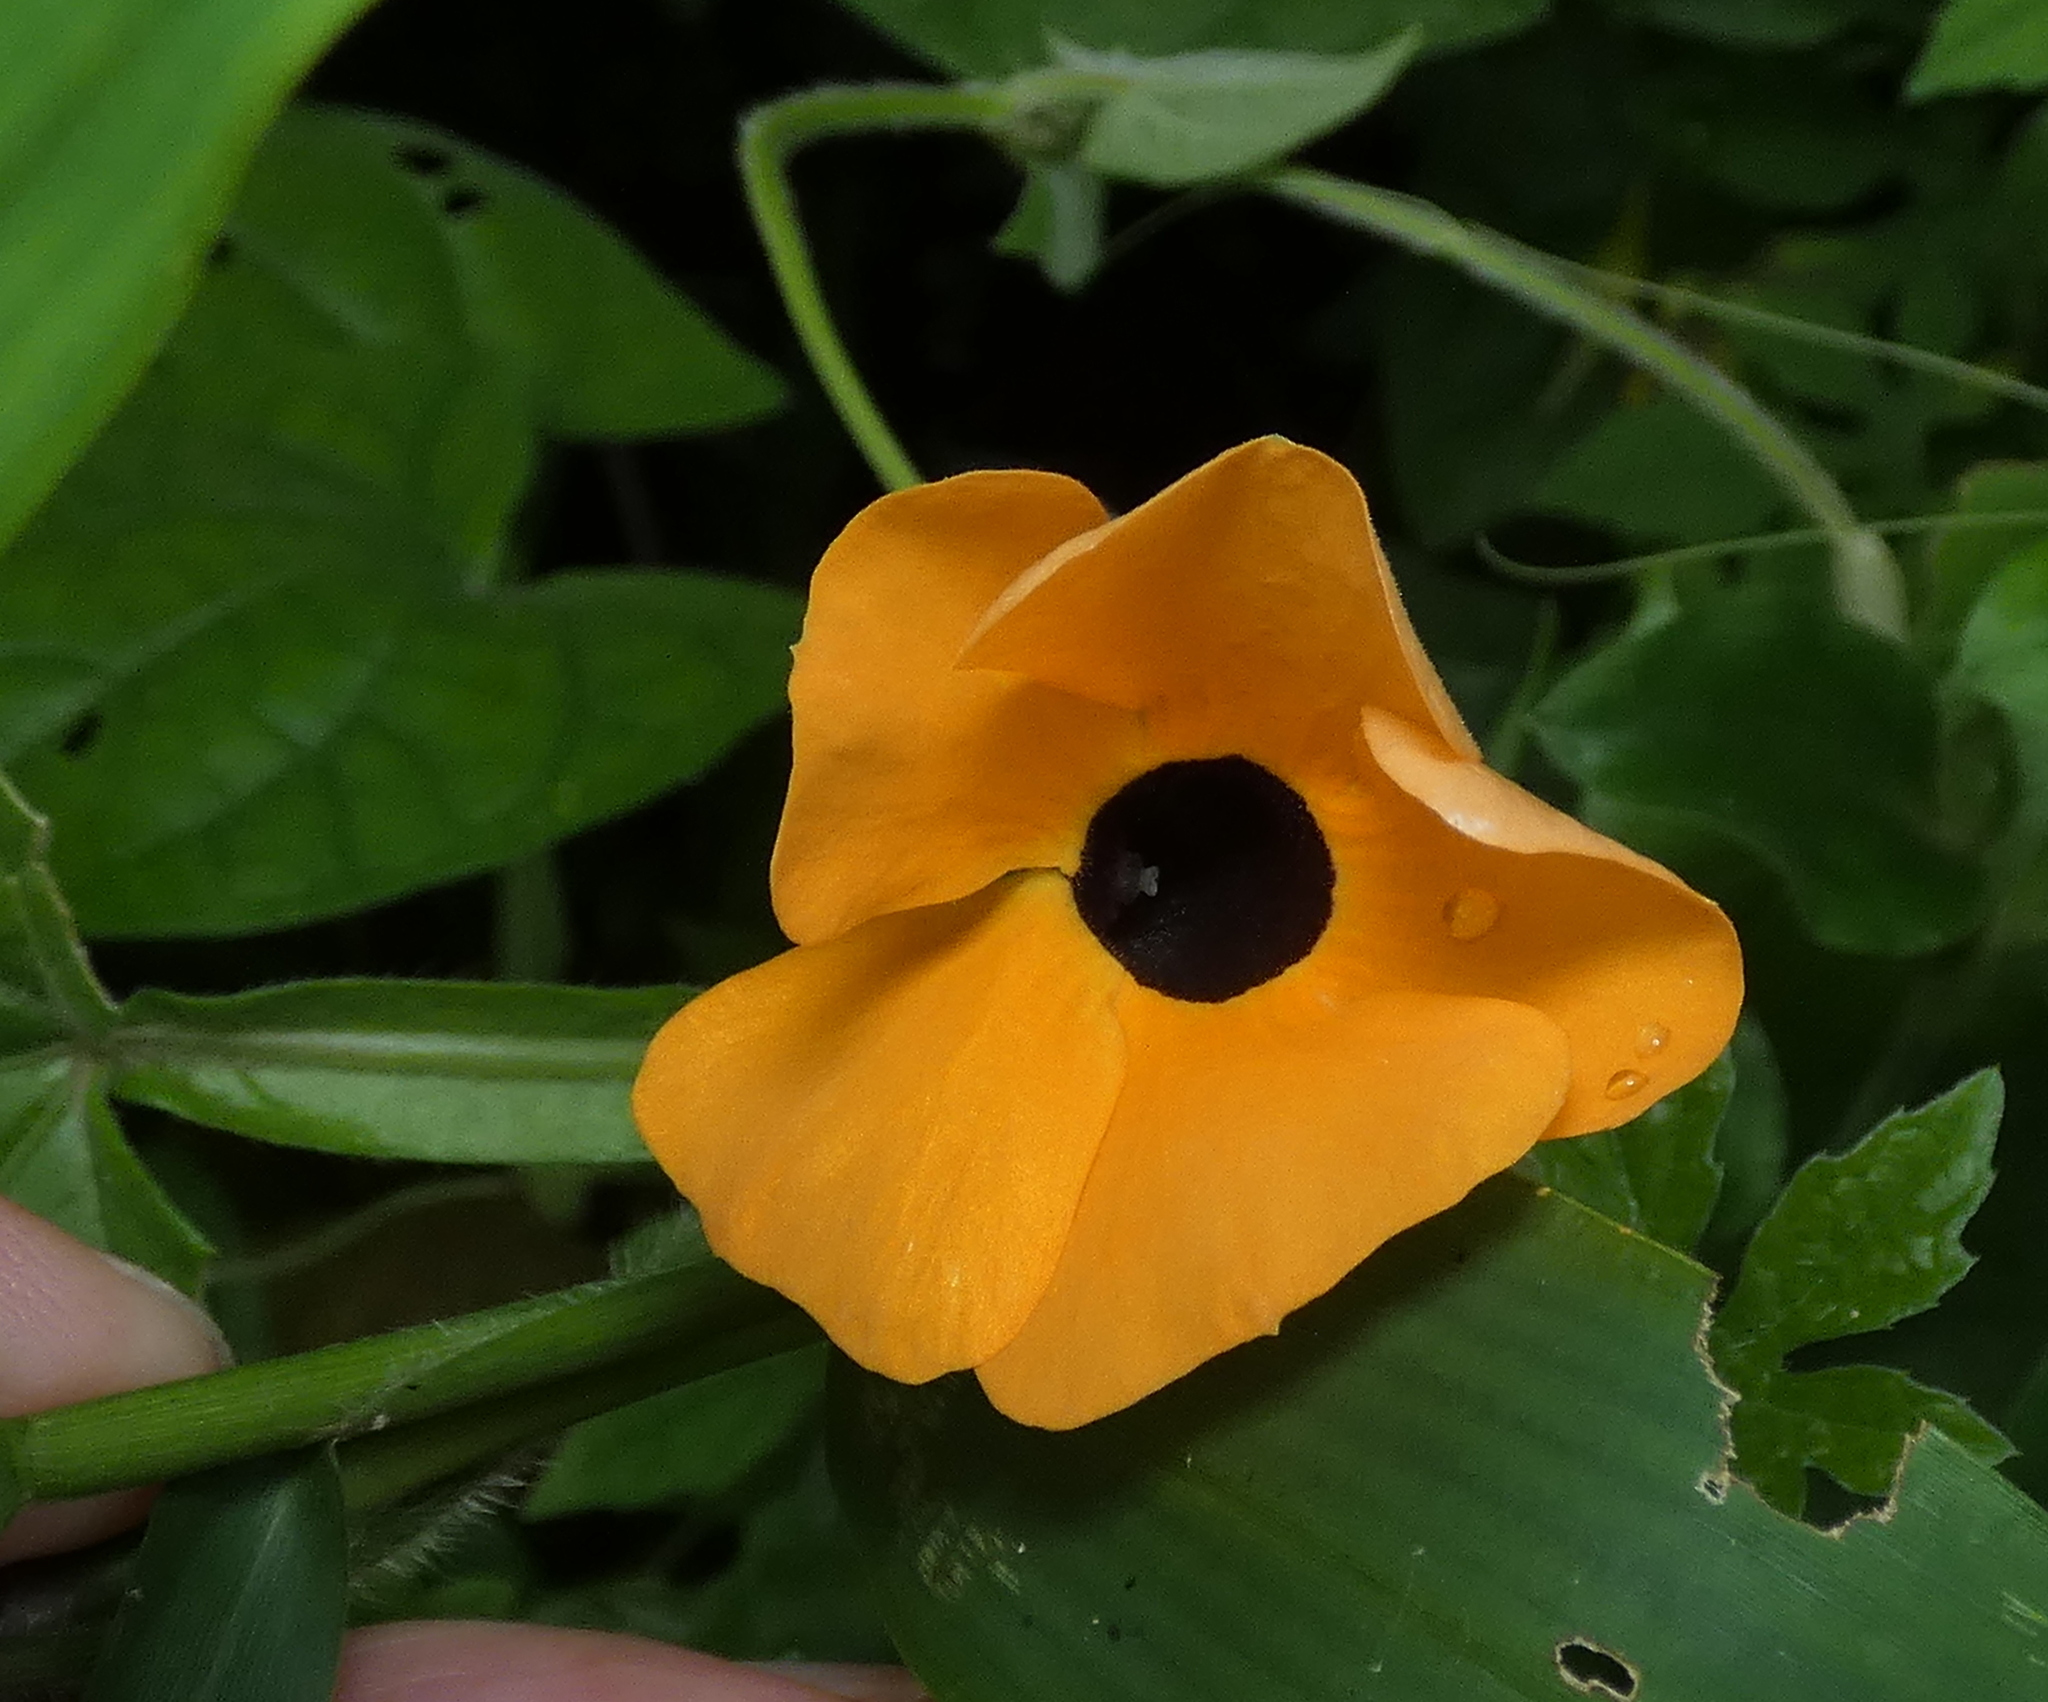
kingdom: Plantae
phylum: Tracheophyta
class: Magnoliopsida
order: Lamiales
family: Acanthaceae
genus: Thunbergia
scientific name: Thunbergia alata
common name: Blackeyed susan vine
